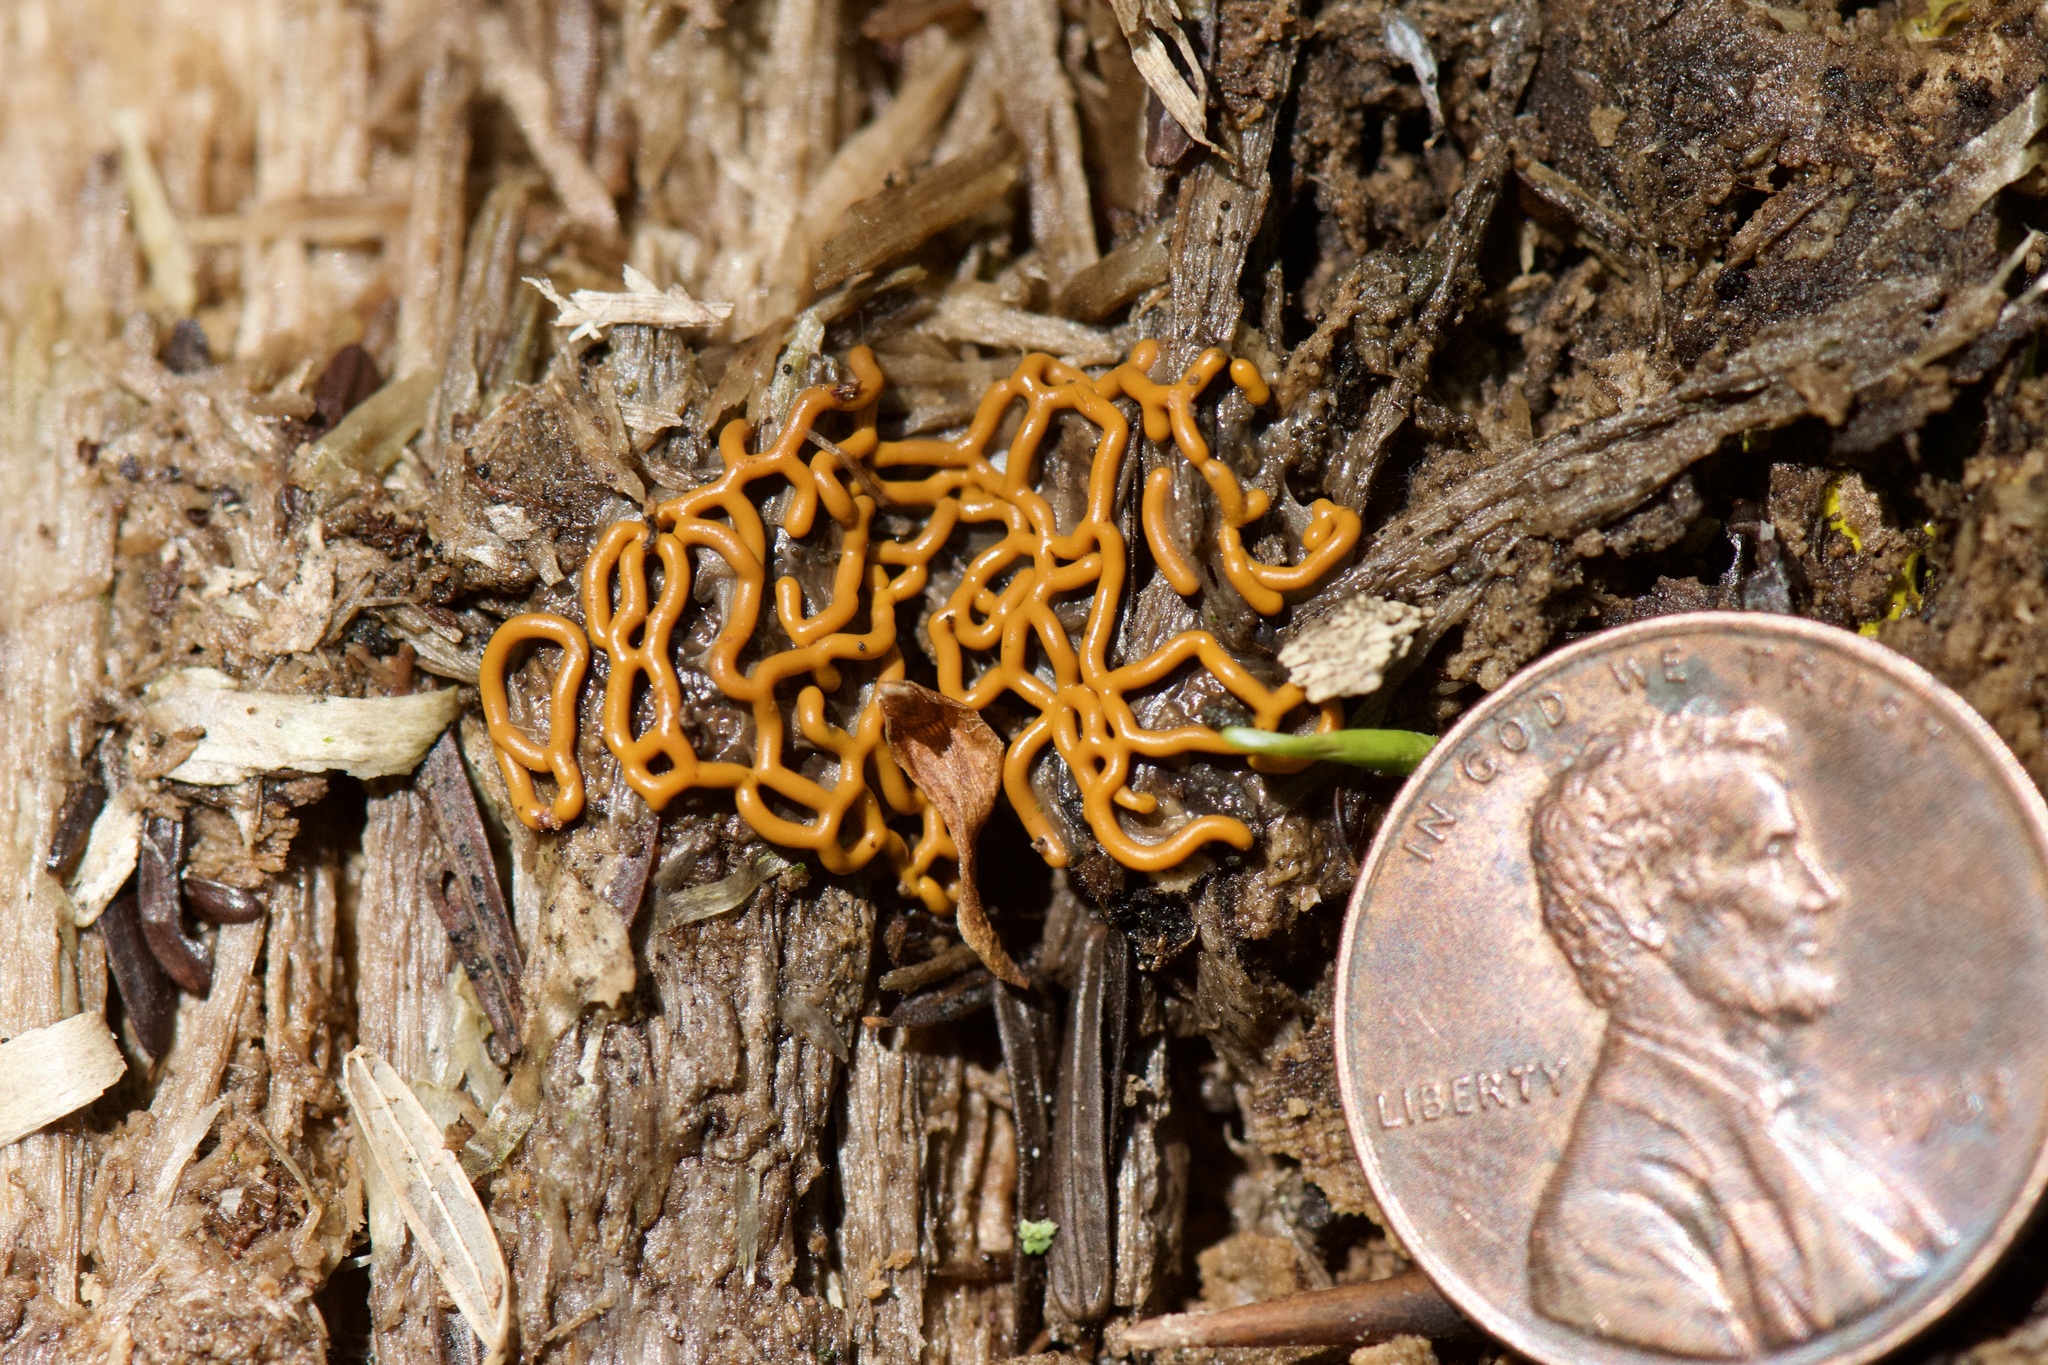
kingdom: Protozoa
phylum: Mycetozoa
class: Myxomycetes
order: Trichiales
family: Arcyriaceae
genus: Hemitrichia
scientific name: Hemitrichia serpula
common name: Pretzel slime mold
